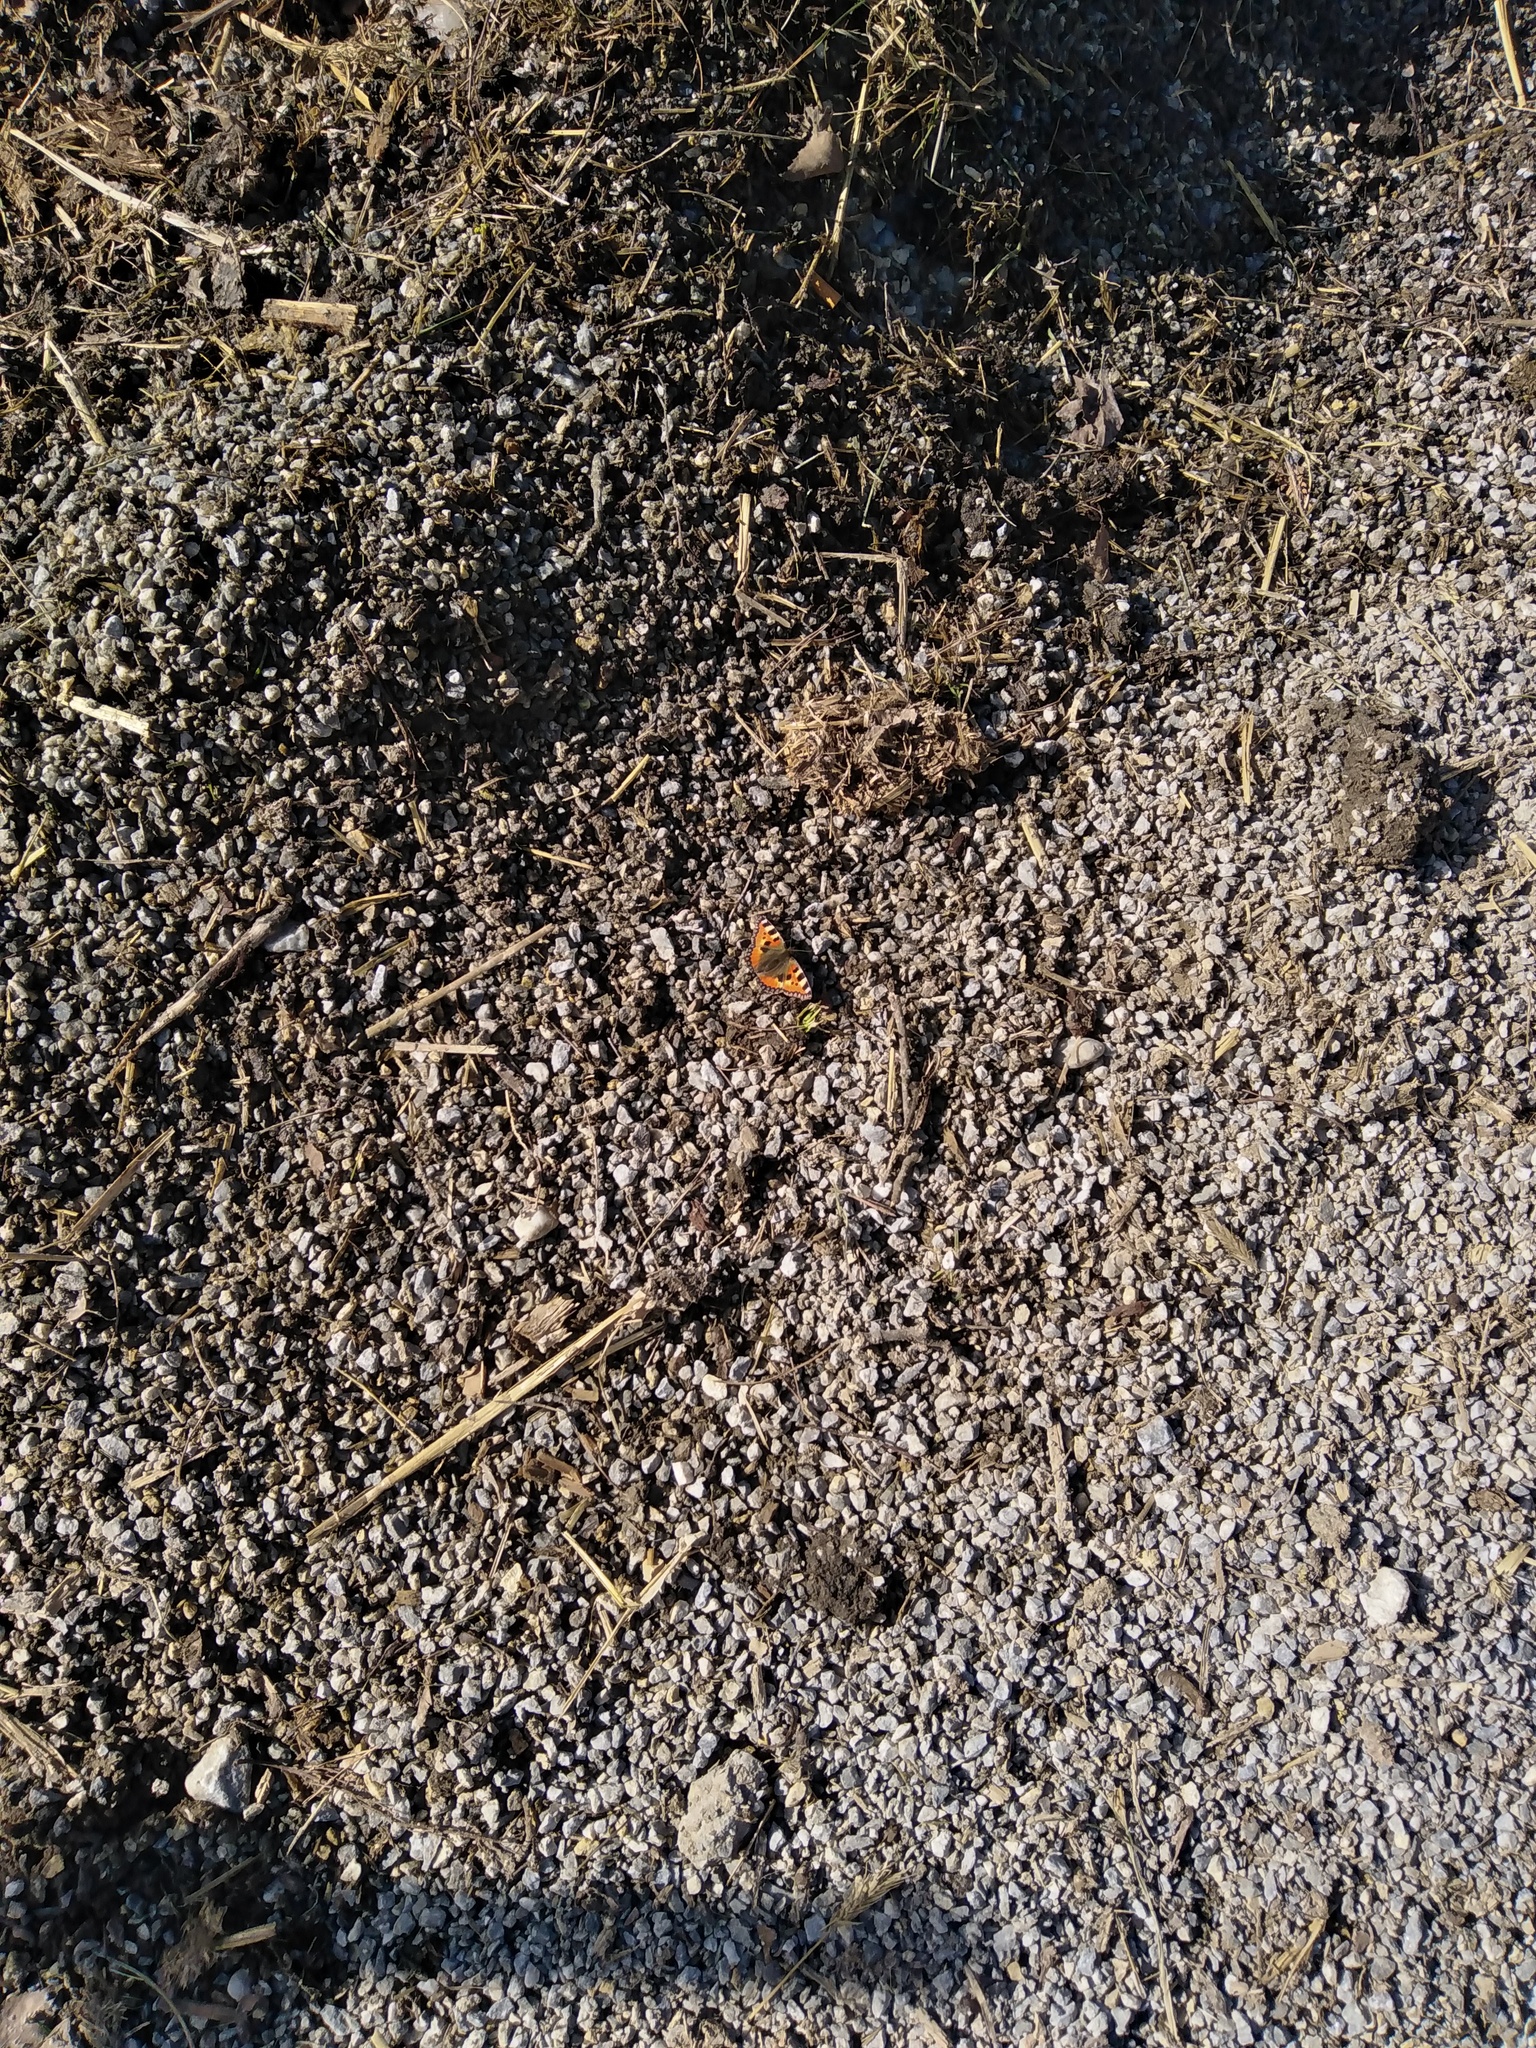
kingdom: Animalia
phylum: Arthropoda
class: Insecta
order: Lepidoptera
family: Nymphalidae
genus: Aglais
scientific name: Aglais urticae
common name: Small tortoiseshell
